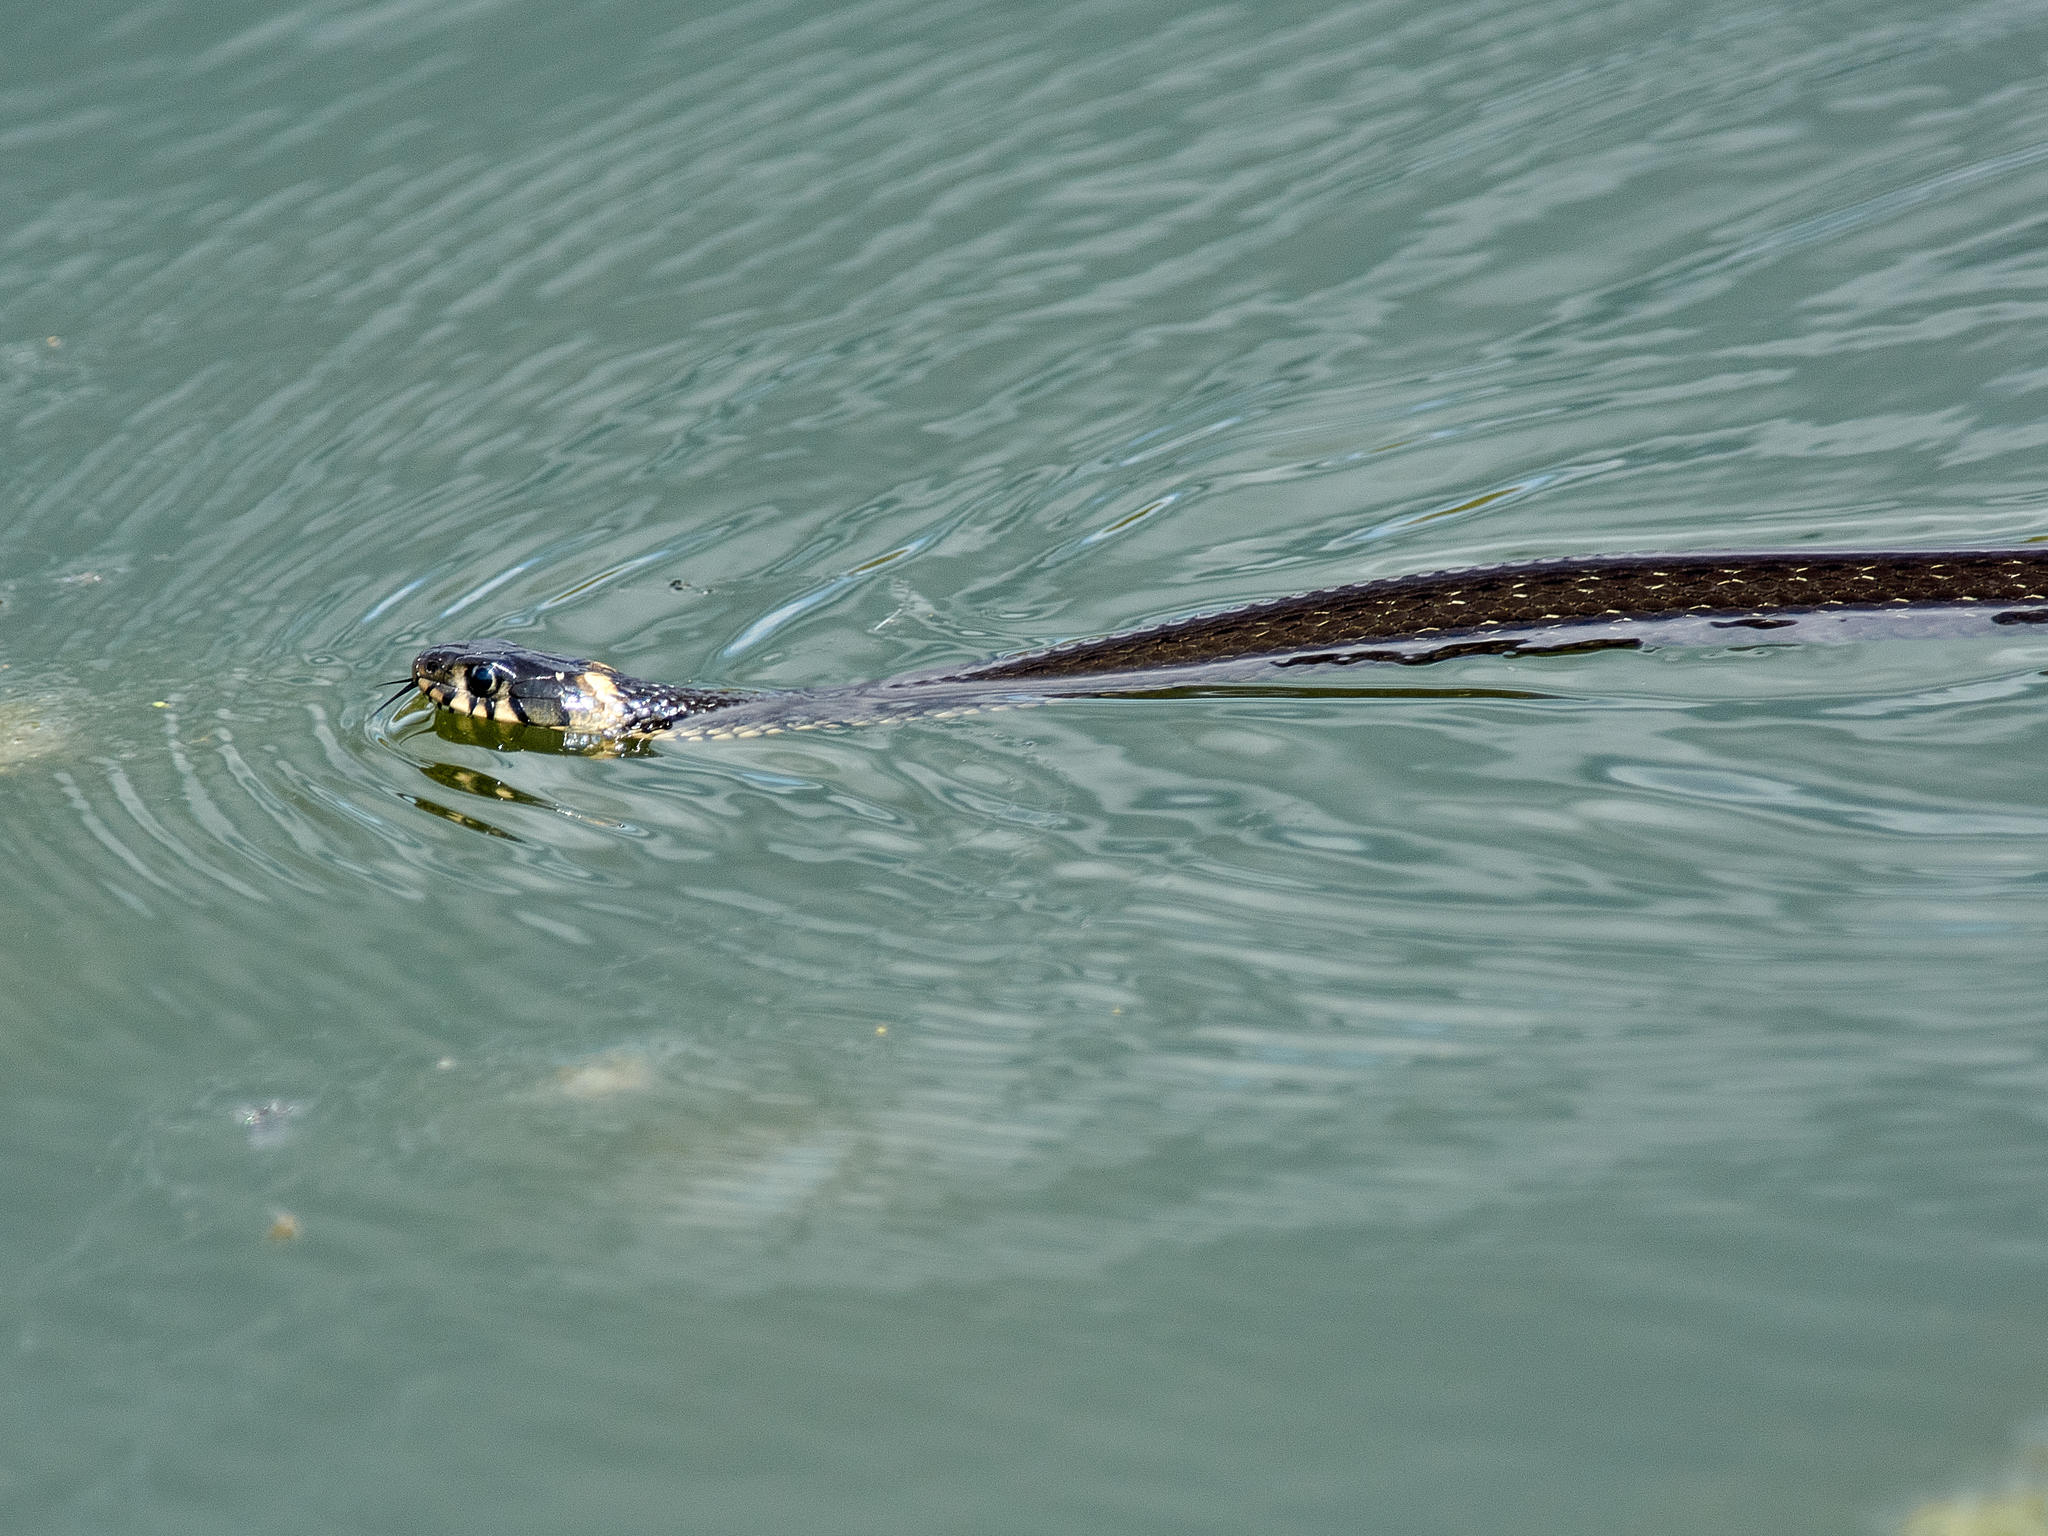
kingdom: Animalia
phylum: Chordata
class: Squamata
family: Colubridae
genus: Natrix
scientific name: Natrix natrix
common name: Grass snake
